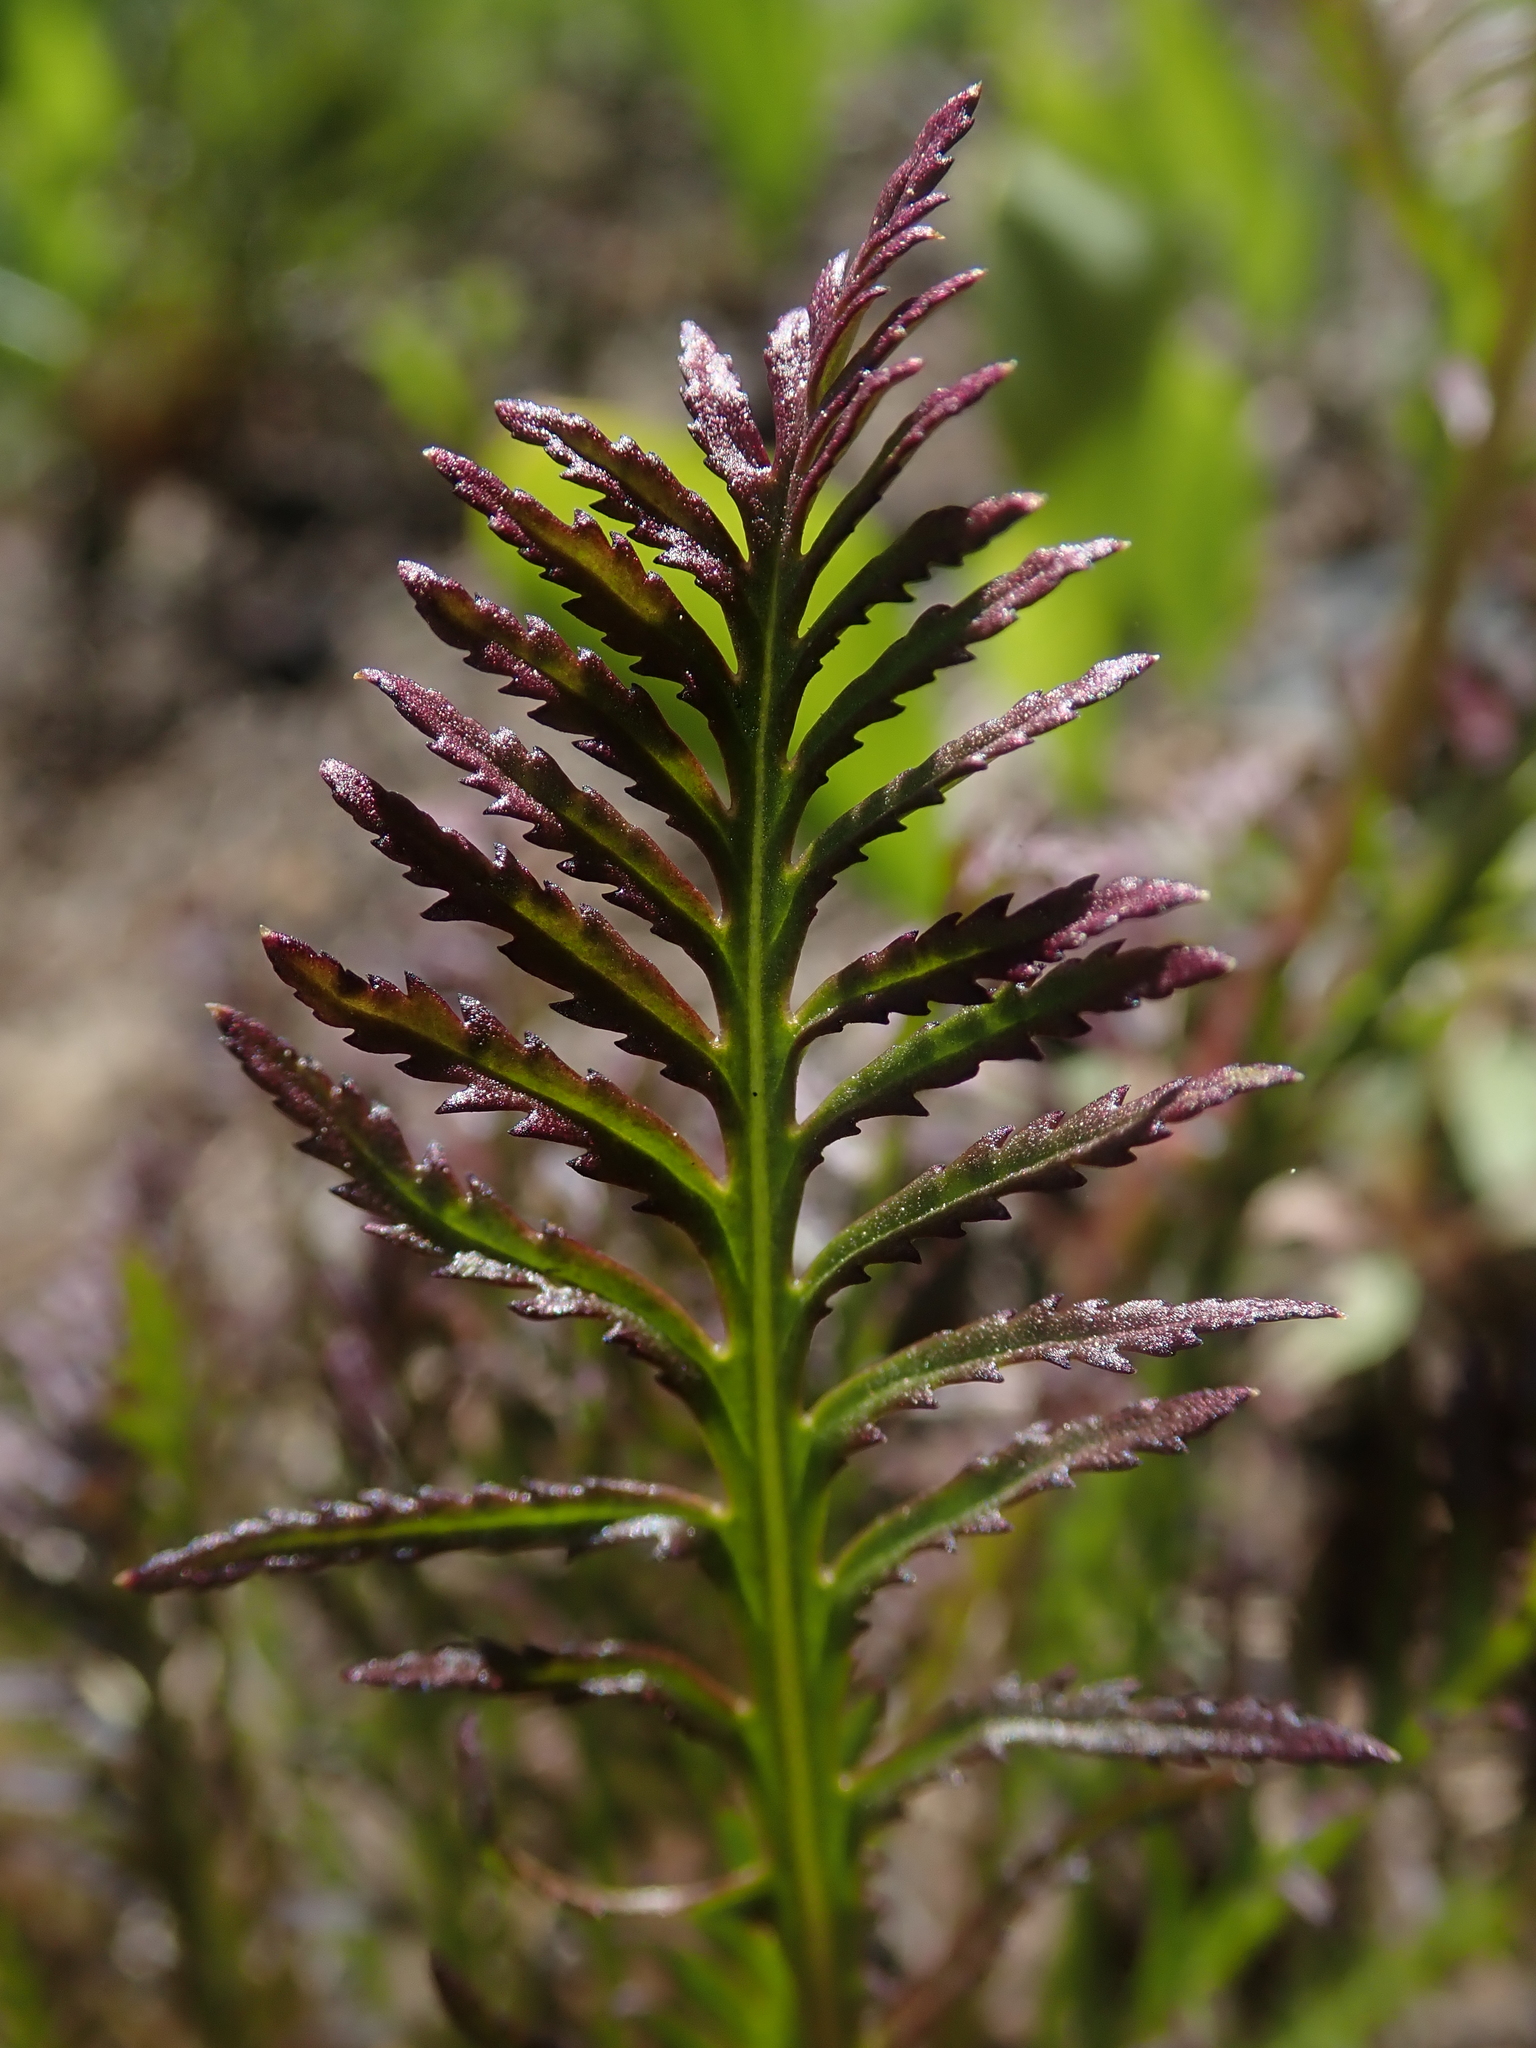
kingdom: Plantae
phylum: Tracheophyta
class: Magnoliopsida
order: Lamiales
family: Orobanchaceae
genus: Pedicularis
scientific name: Pedicularis contorta
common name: Coiled lousewort
